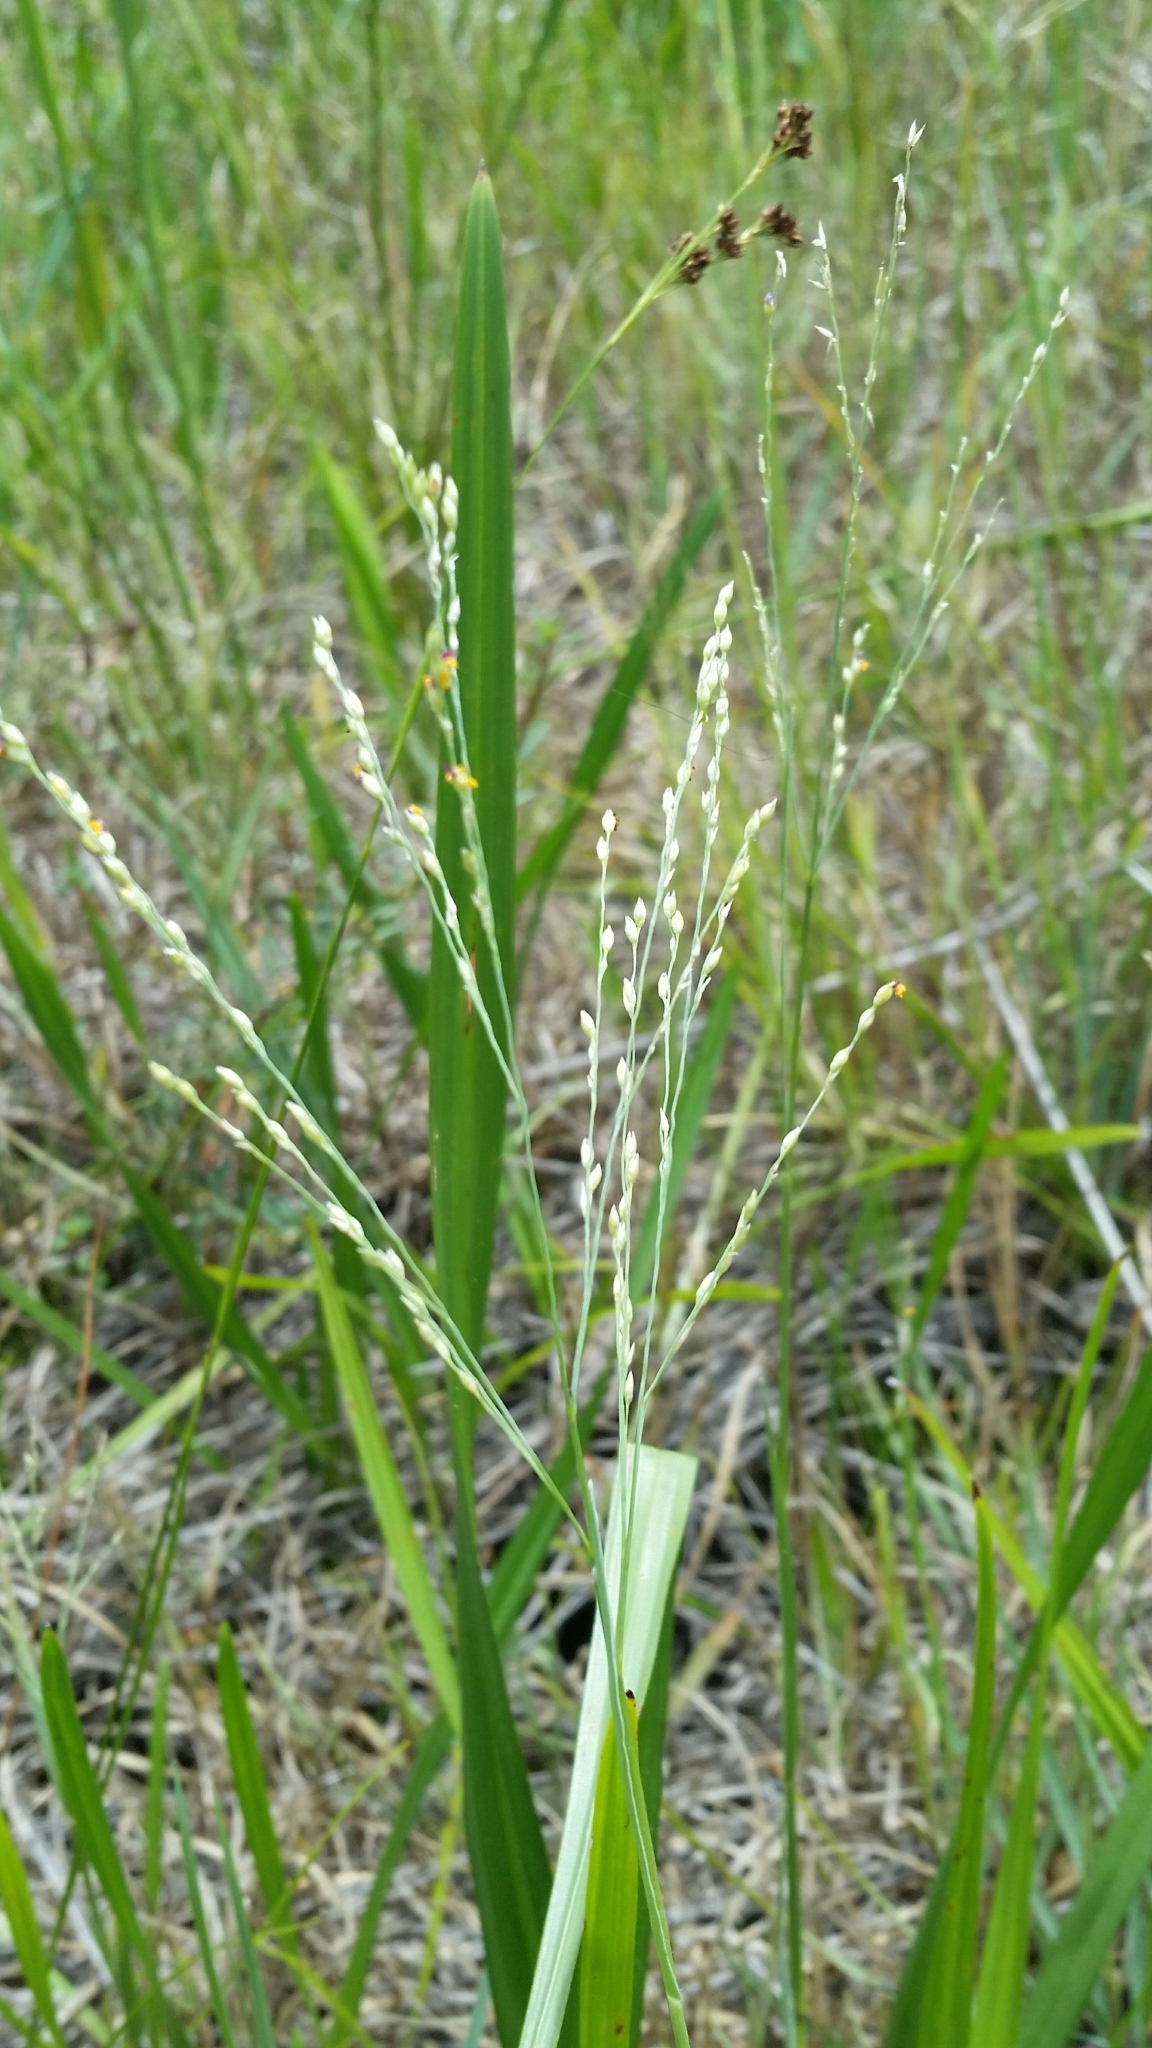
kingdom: Plantae
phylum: Tracheophyta
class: Liliopsida
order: Poales
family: Poaceae
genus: Panicum
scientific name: Panicum repens
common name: Torpedo grass
